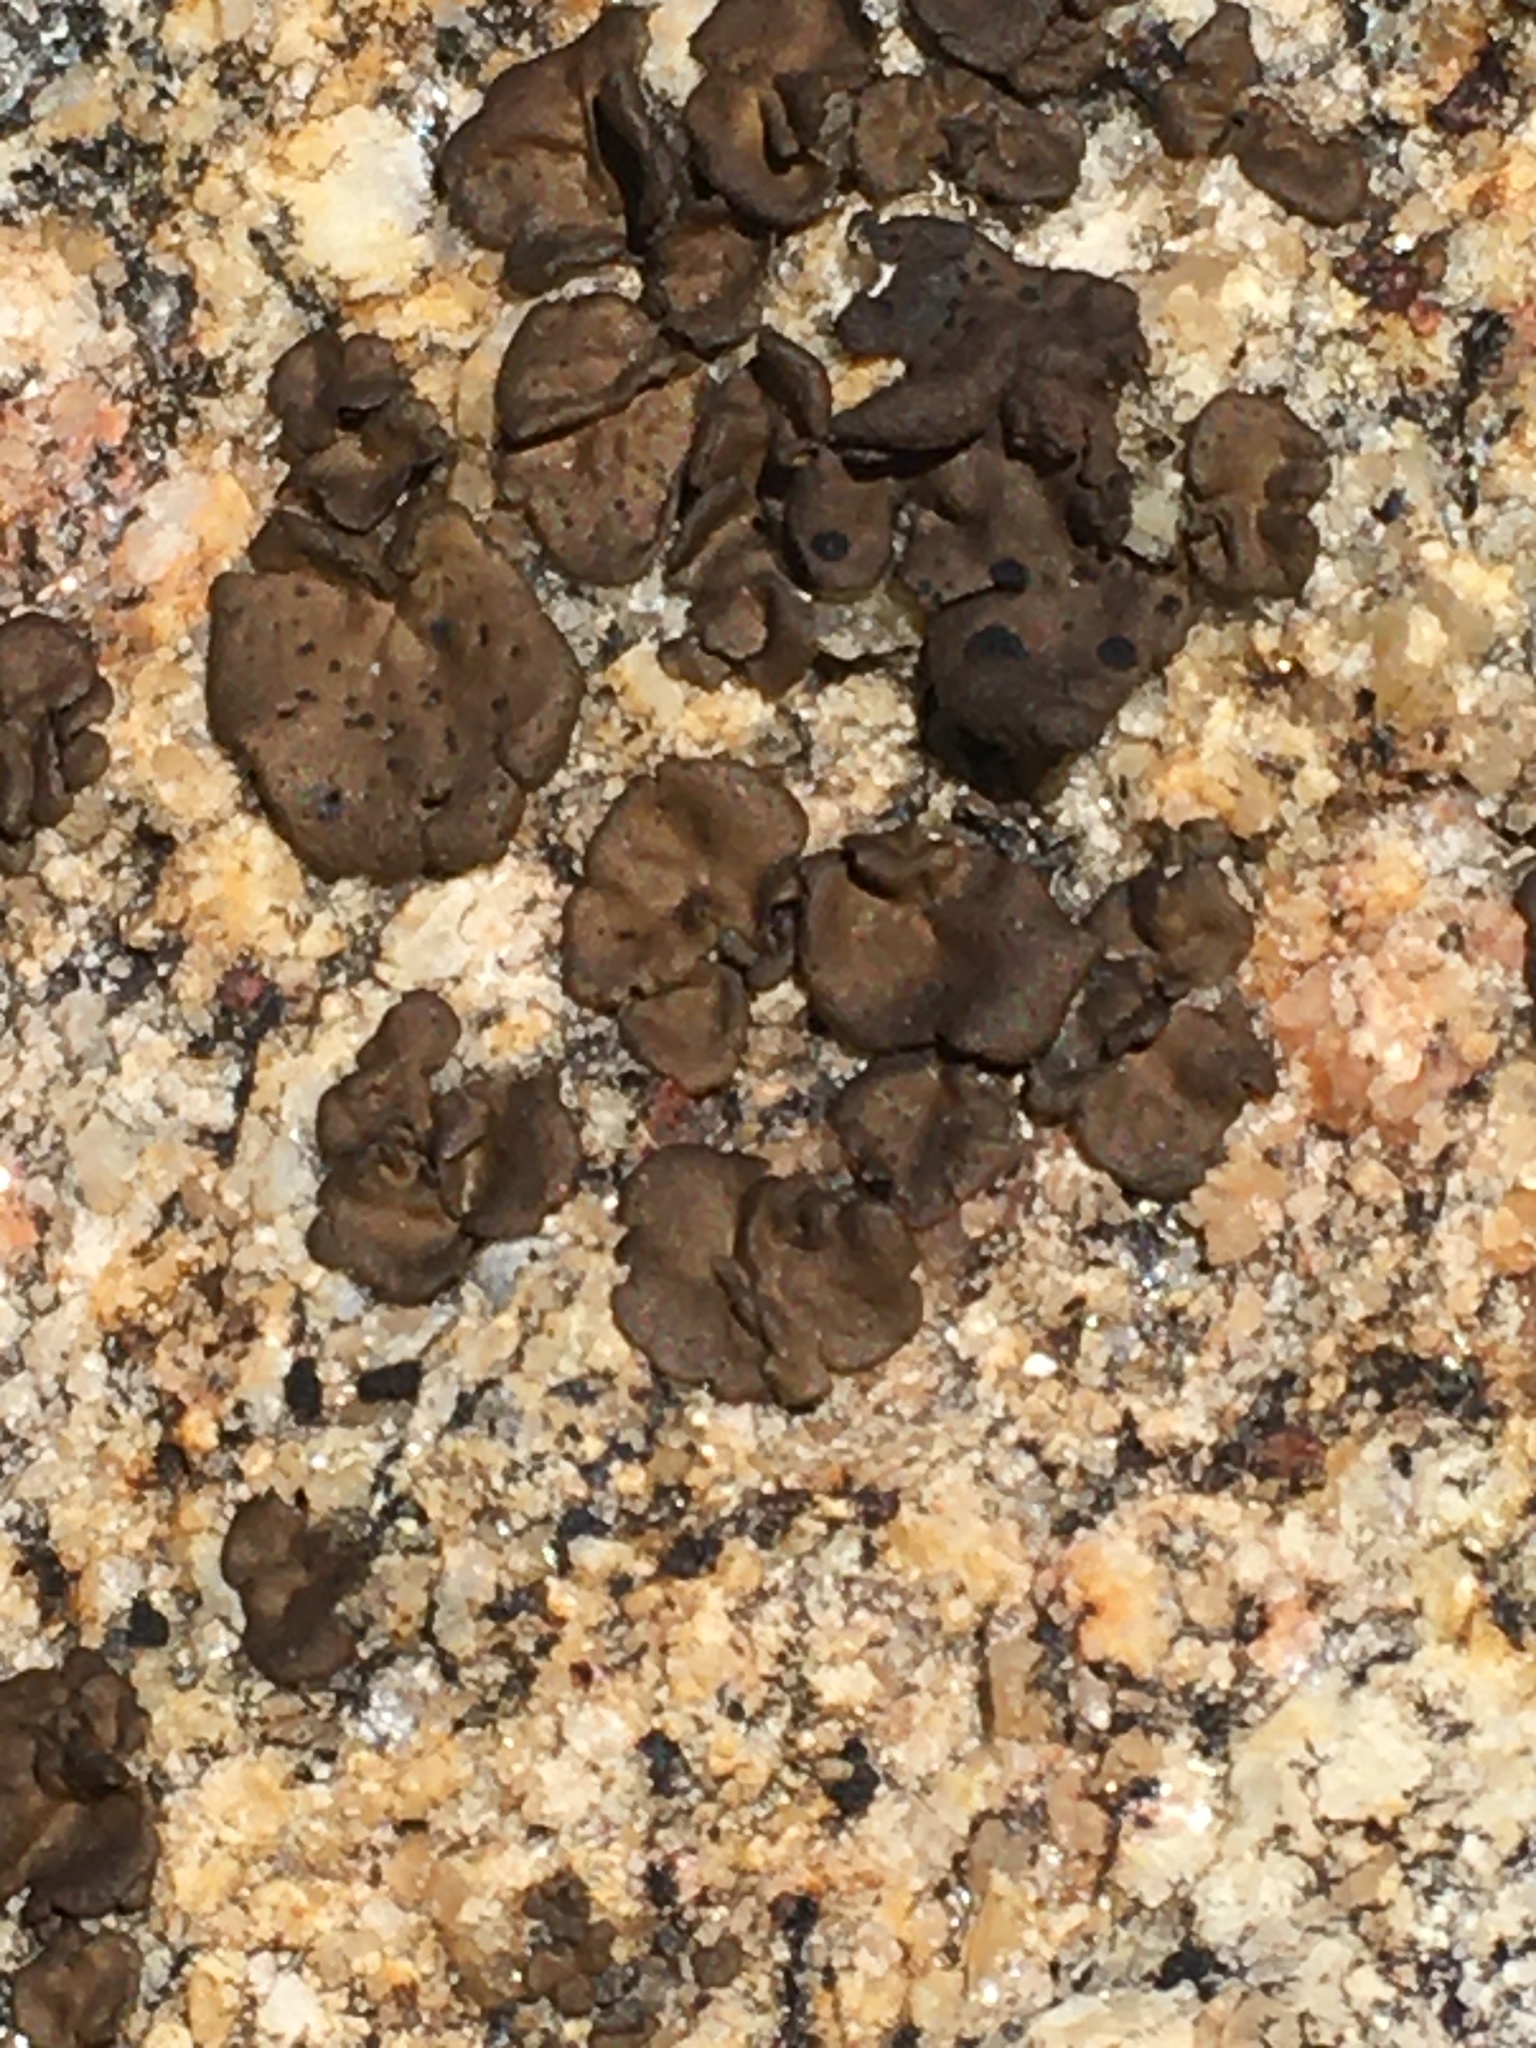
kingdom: Fungi
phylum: Ascomycota
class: Lecanoromycetes
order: Umbilicariales
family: Umbilicariaceae
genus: Umbilicaria
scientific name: Umbilicaria phaea
